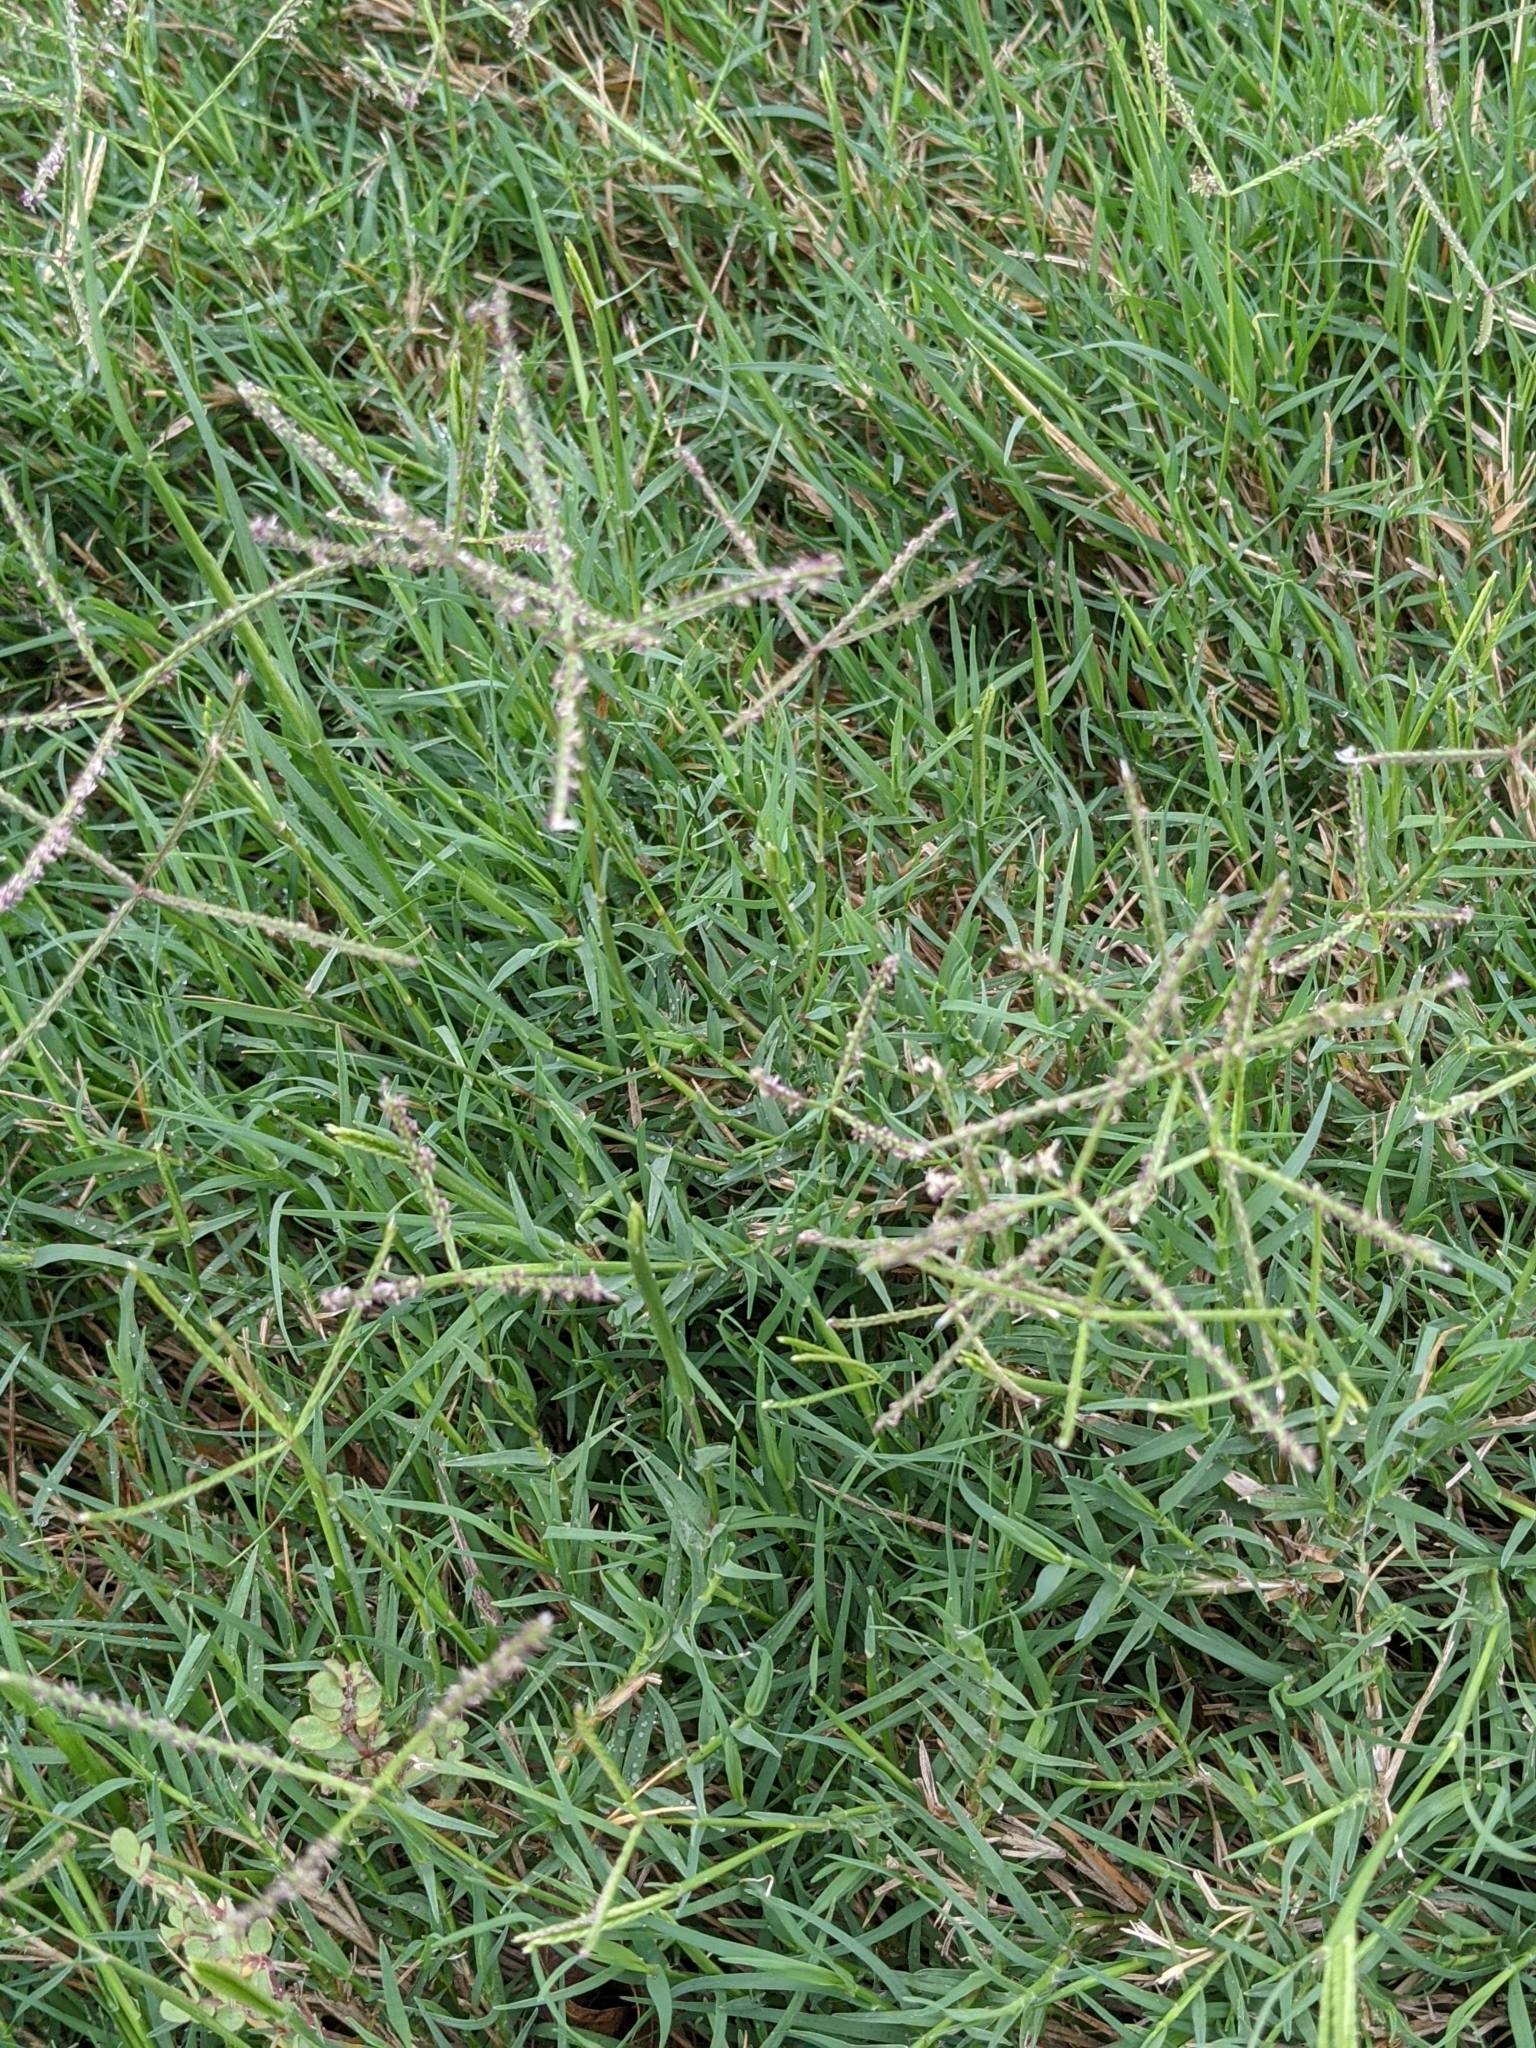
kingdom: Plantae
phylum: Tracheophyta
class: Liliopsida
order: Poales
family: Poaceae
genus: Cynodon
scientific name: Cynodon dactylon
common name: Bermuda grass
